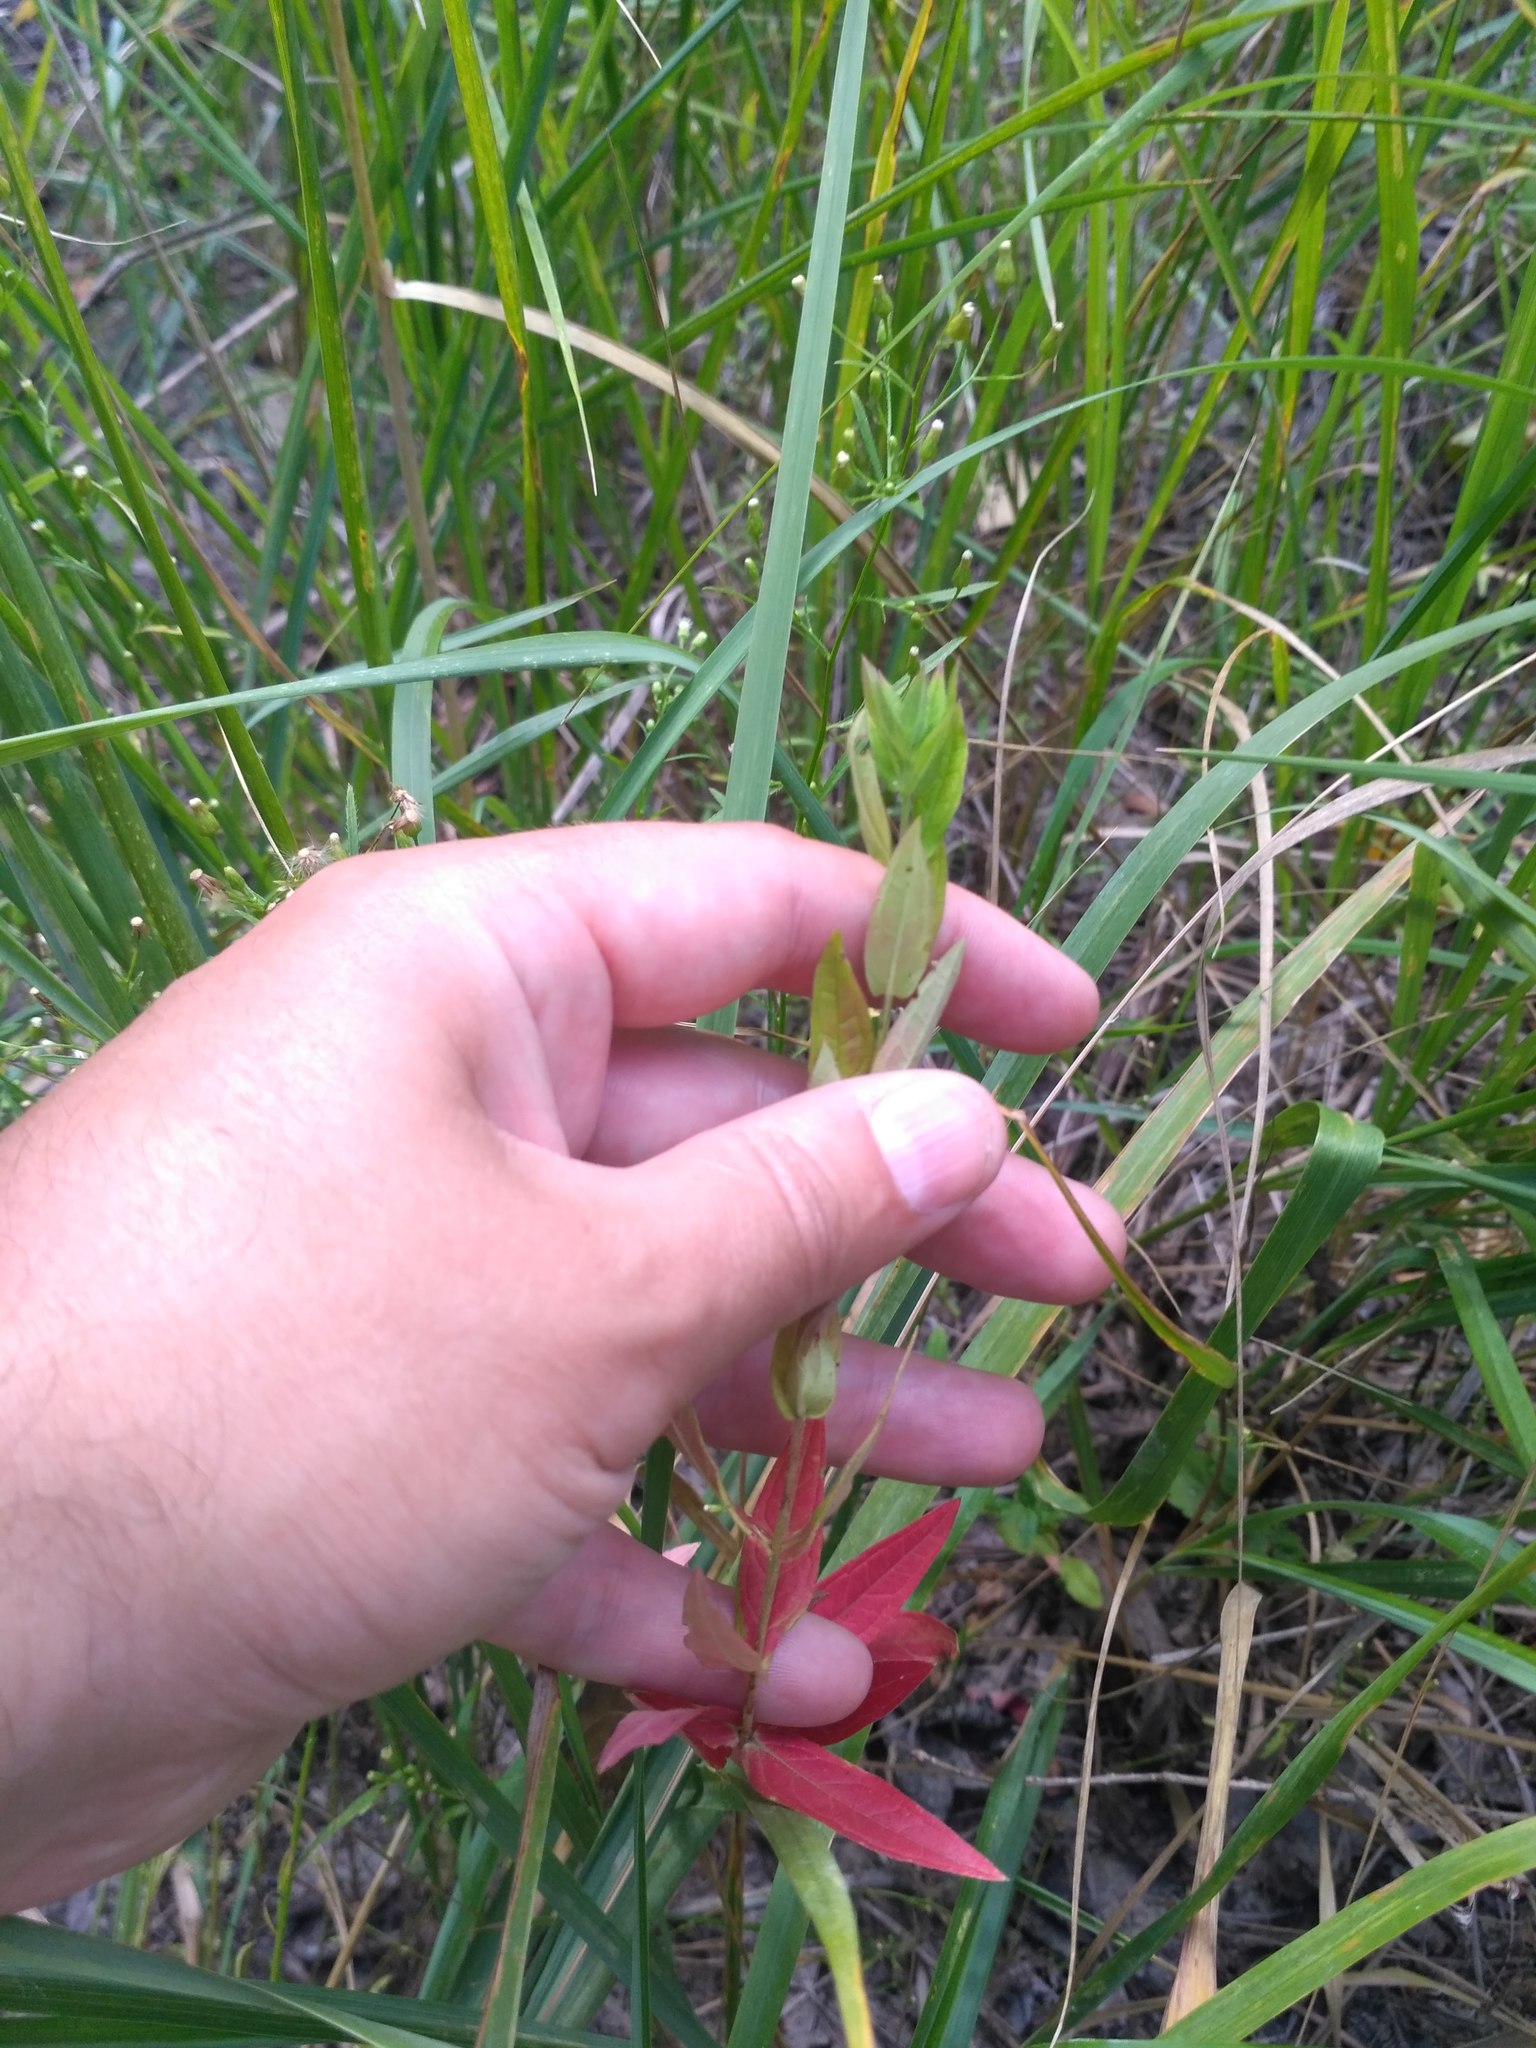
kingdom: Plantae
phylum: Tracheophyta
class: Magnoliopsida
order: Myrtales
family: Lythraceae
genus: Lythrum
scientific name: Lythrum salicaria
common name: Purple loosestrife
